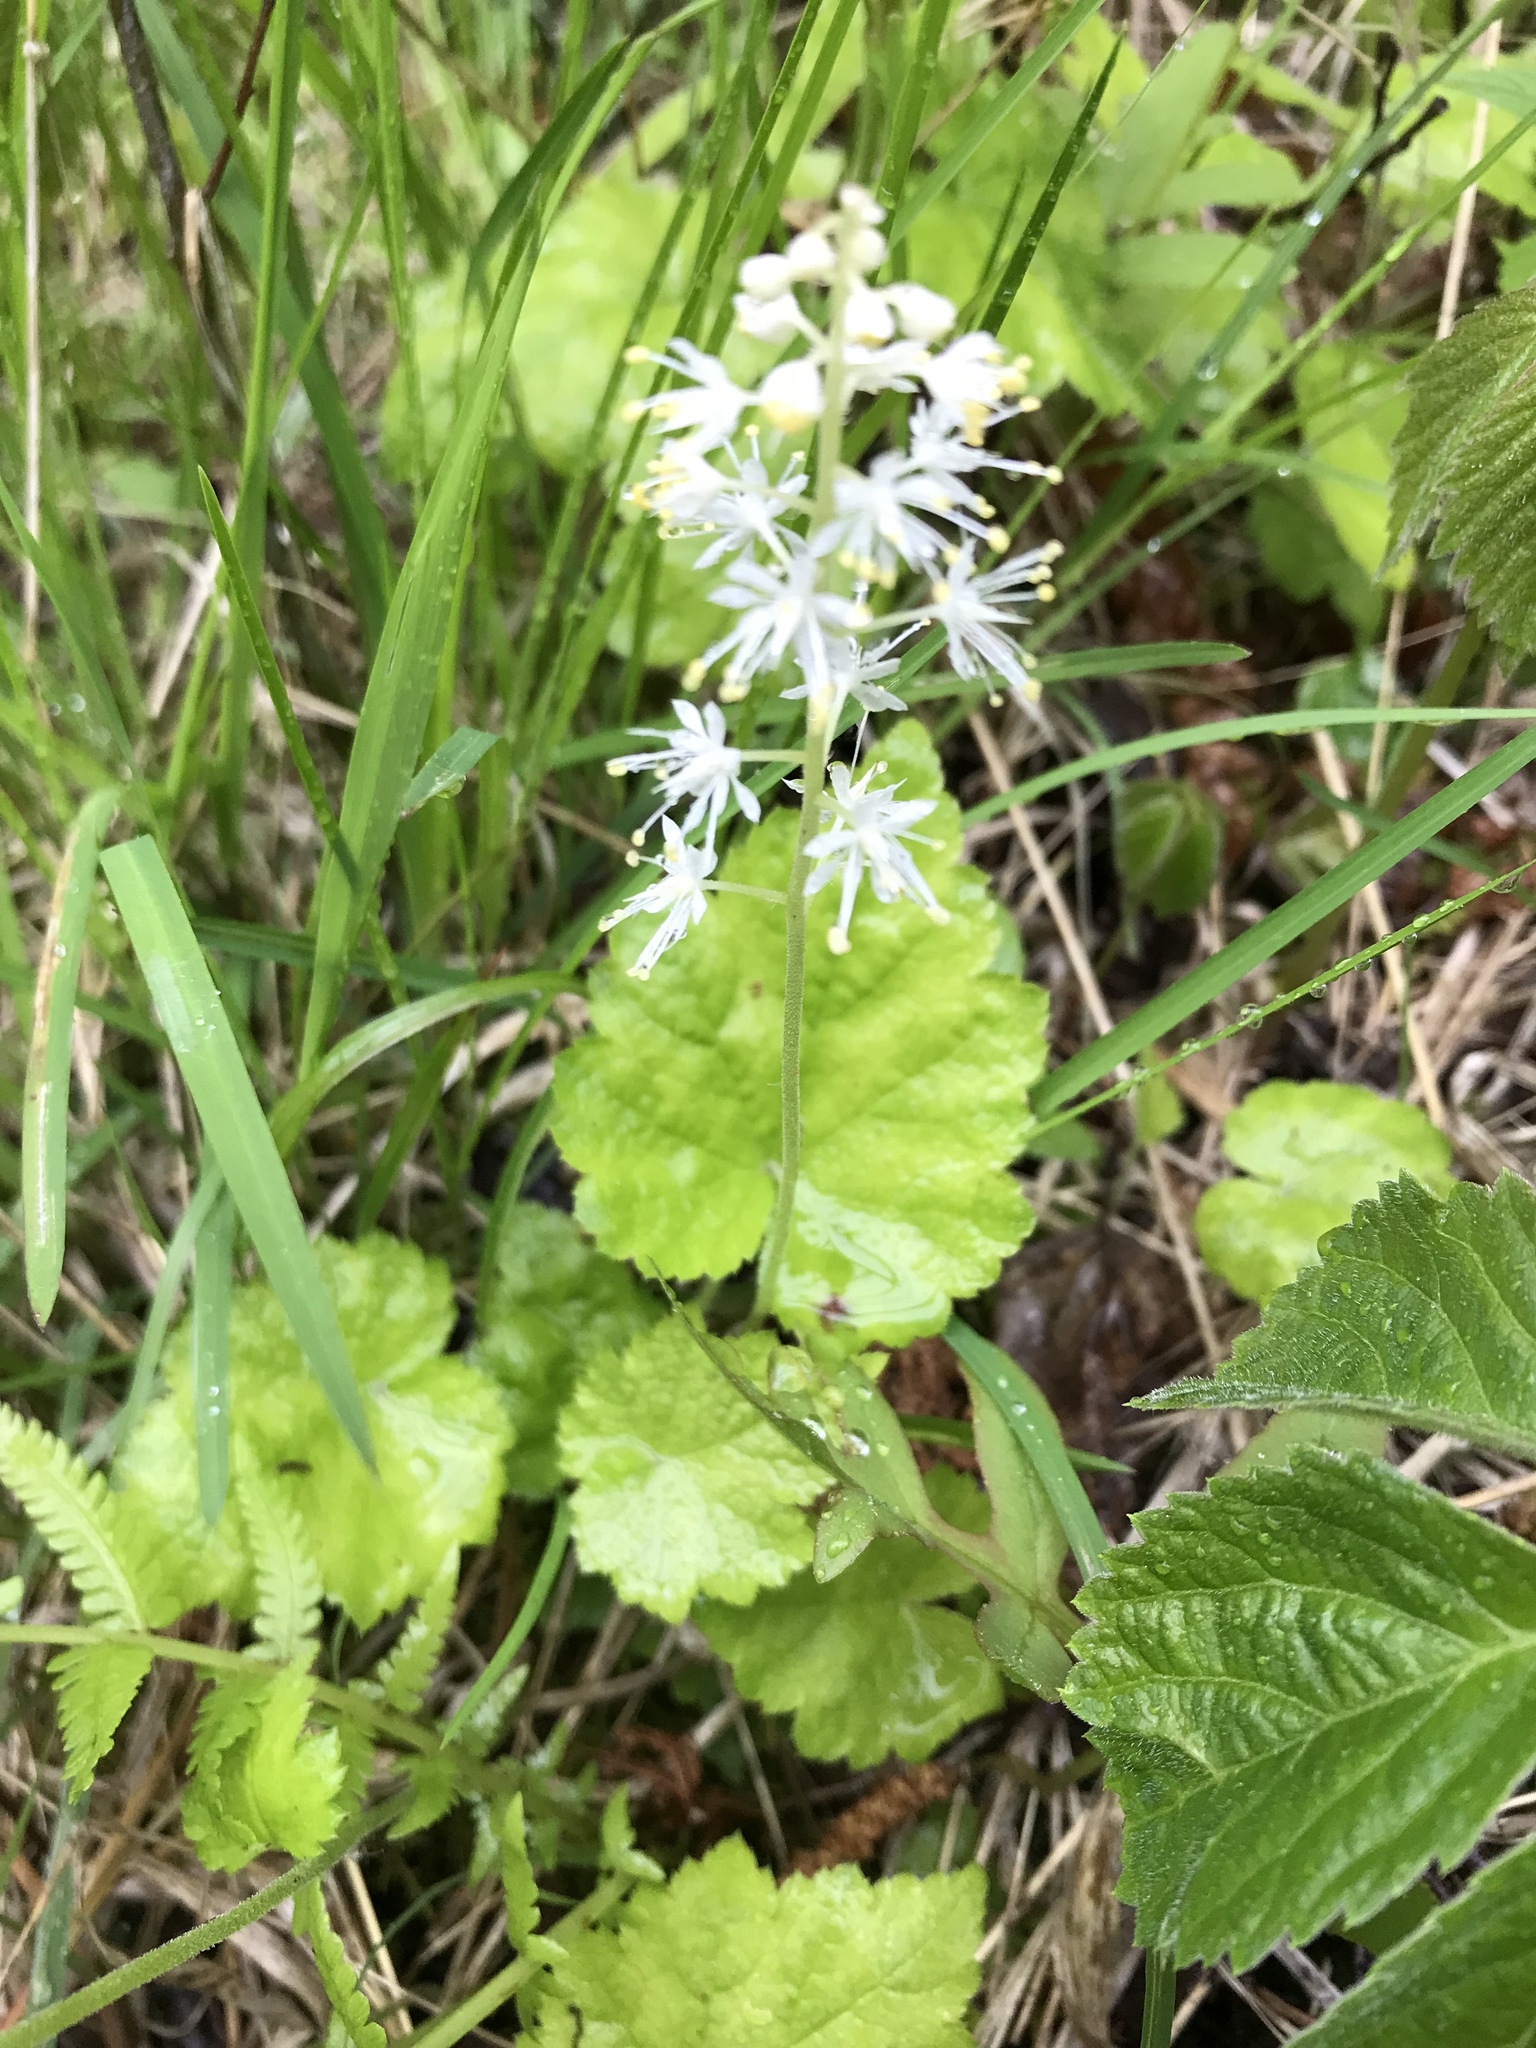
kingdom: Plantae
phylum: Tracheophyta
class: Magnoliopsida
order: Saxifragales
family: Saxifragaceae
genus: Tiarella
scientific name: Tiarella stolonifera
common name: Stoloniferous foamflower
